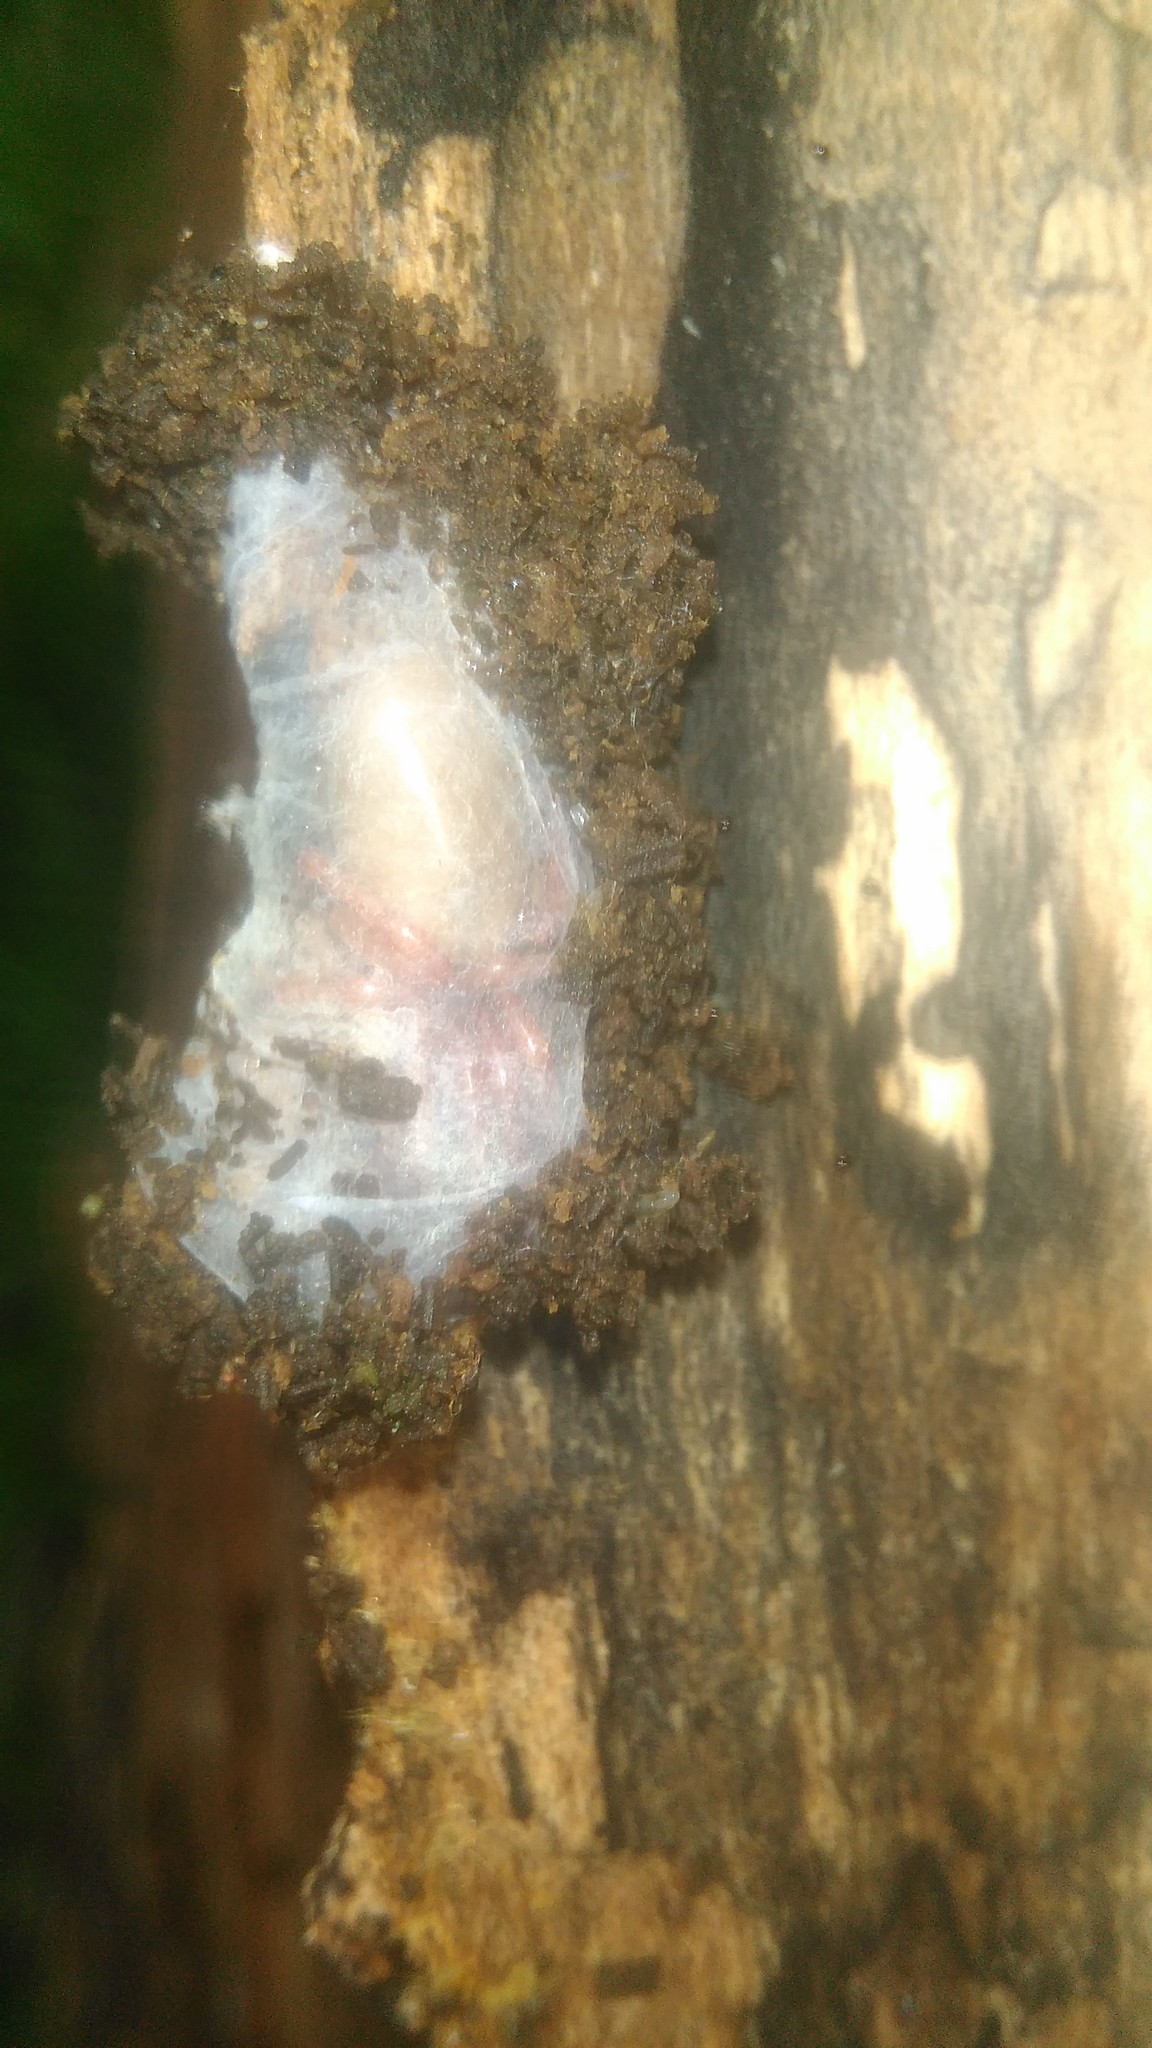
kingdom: Animalia
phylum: Arthropoda
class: Arachnida
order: Araneae
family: Dysderidae
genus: Dysdera
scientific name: Dysdera crocata
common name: Woodlouse spider
